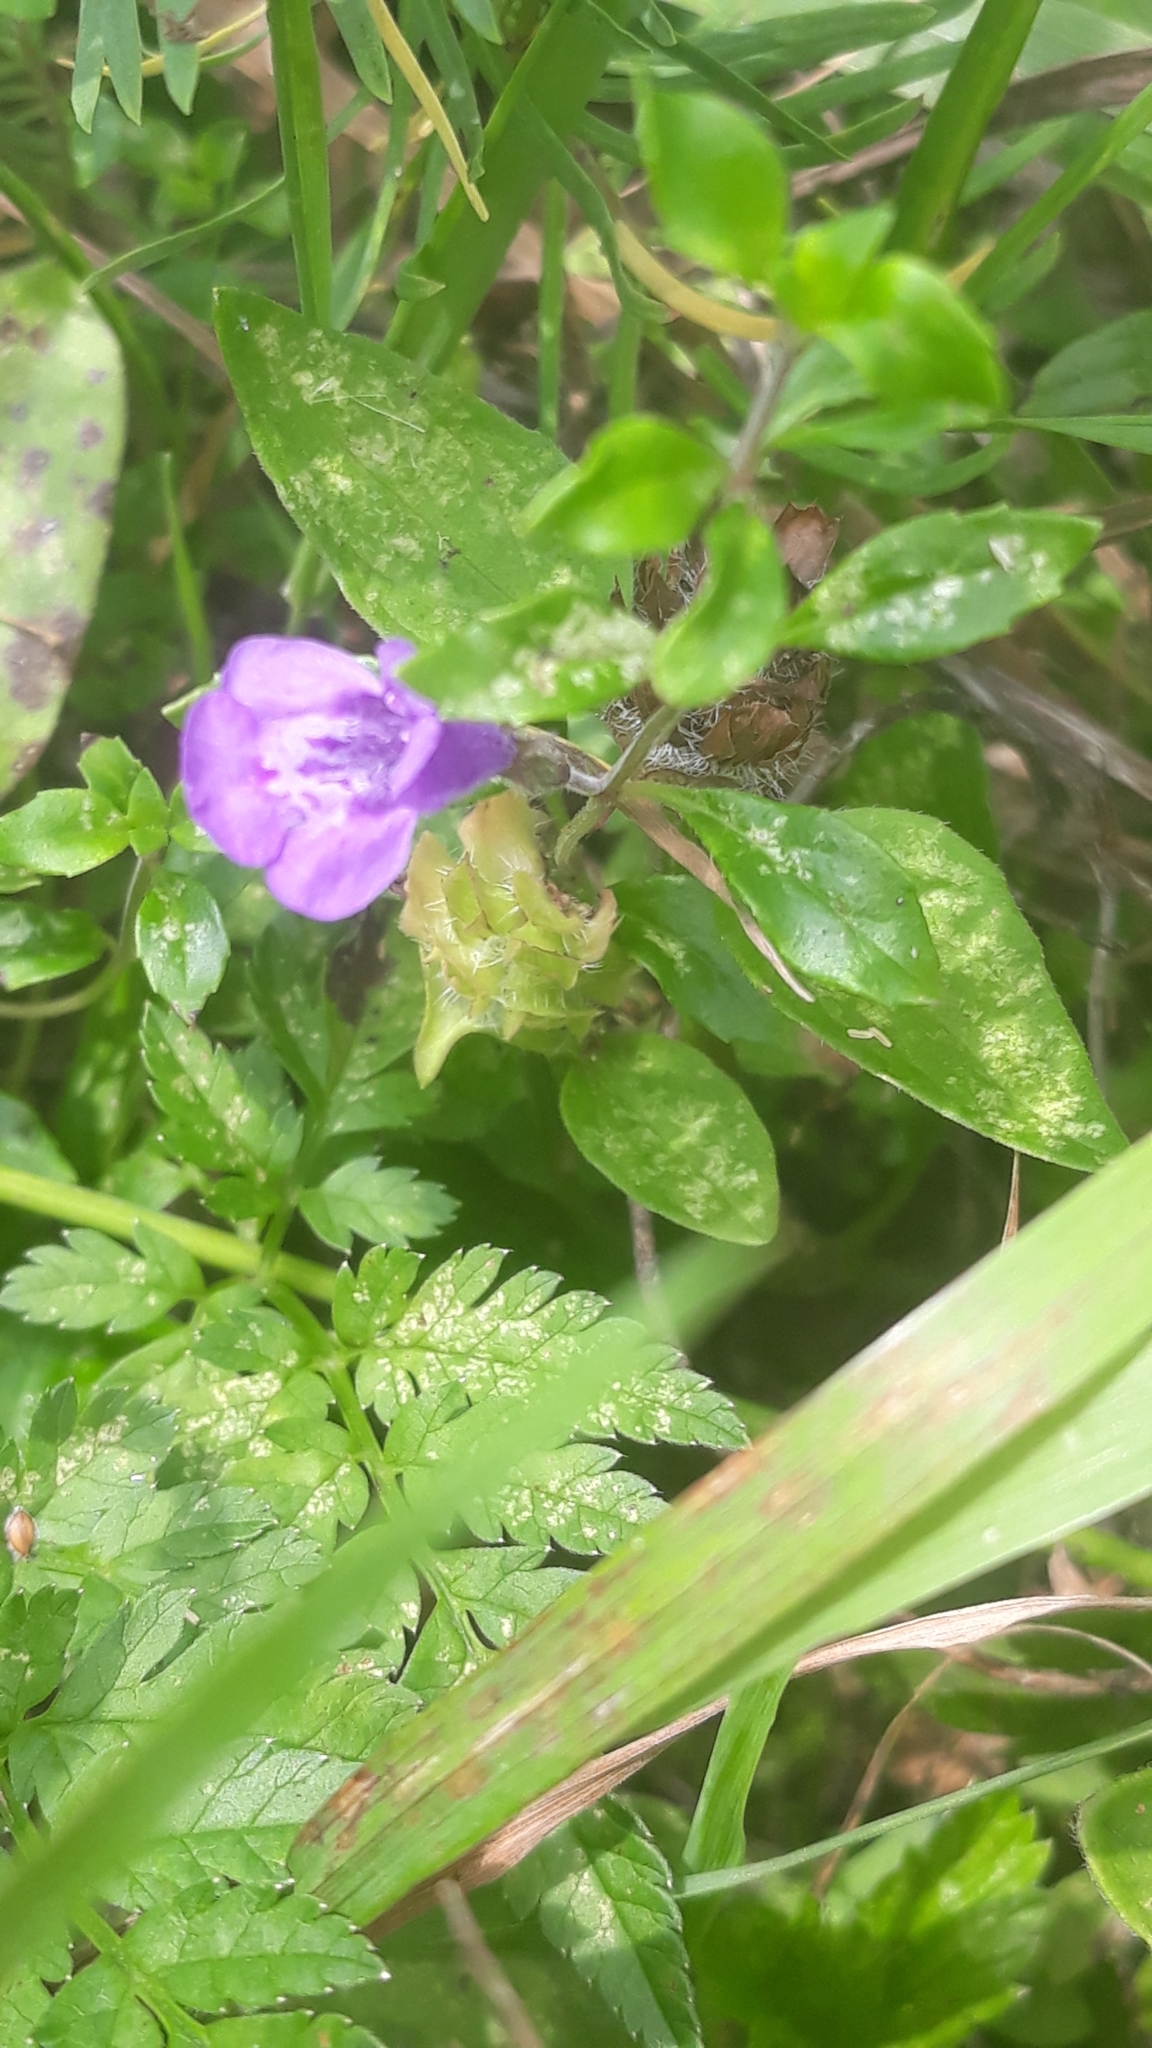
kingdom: Plantae
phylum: Tracheophyta
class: Magnoliopsida
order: Lamiales
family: Lamiaceae
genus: Clinopodium
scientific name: Clinopodium alpinum
